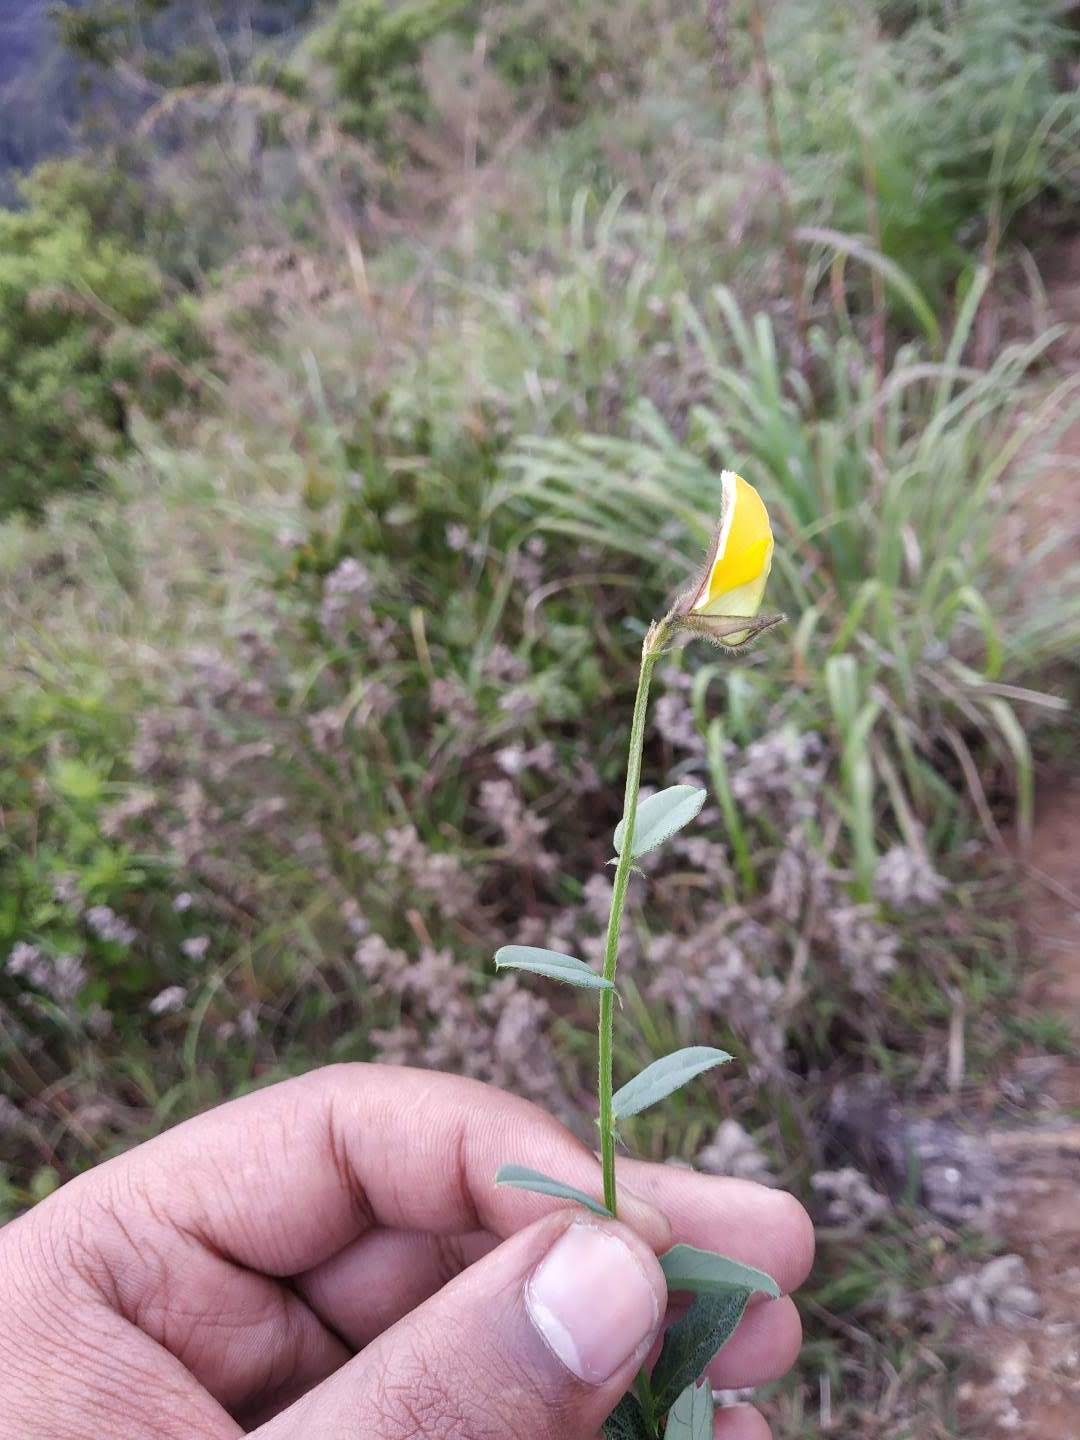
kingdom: Plantae
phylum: Tracheophyta
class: Magnoliopsida
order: Fabales
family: Fabaceae
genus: Crotalaria
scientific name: Crotalaria clarkei
